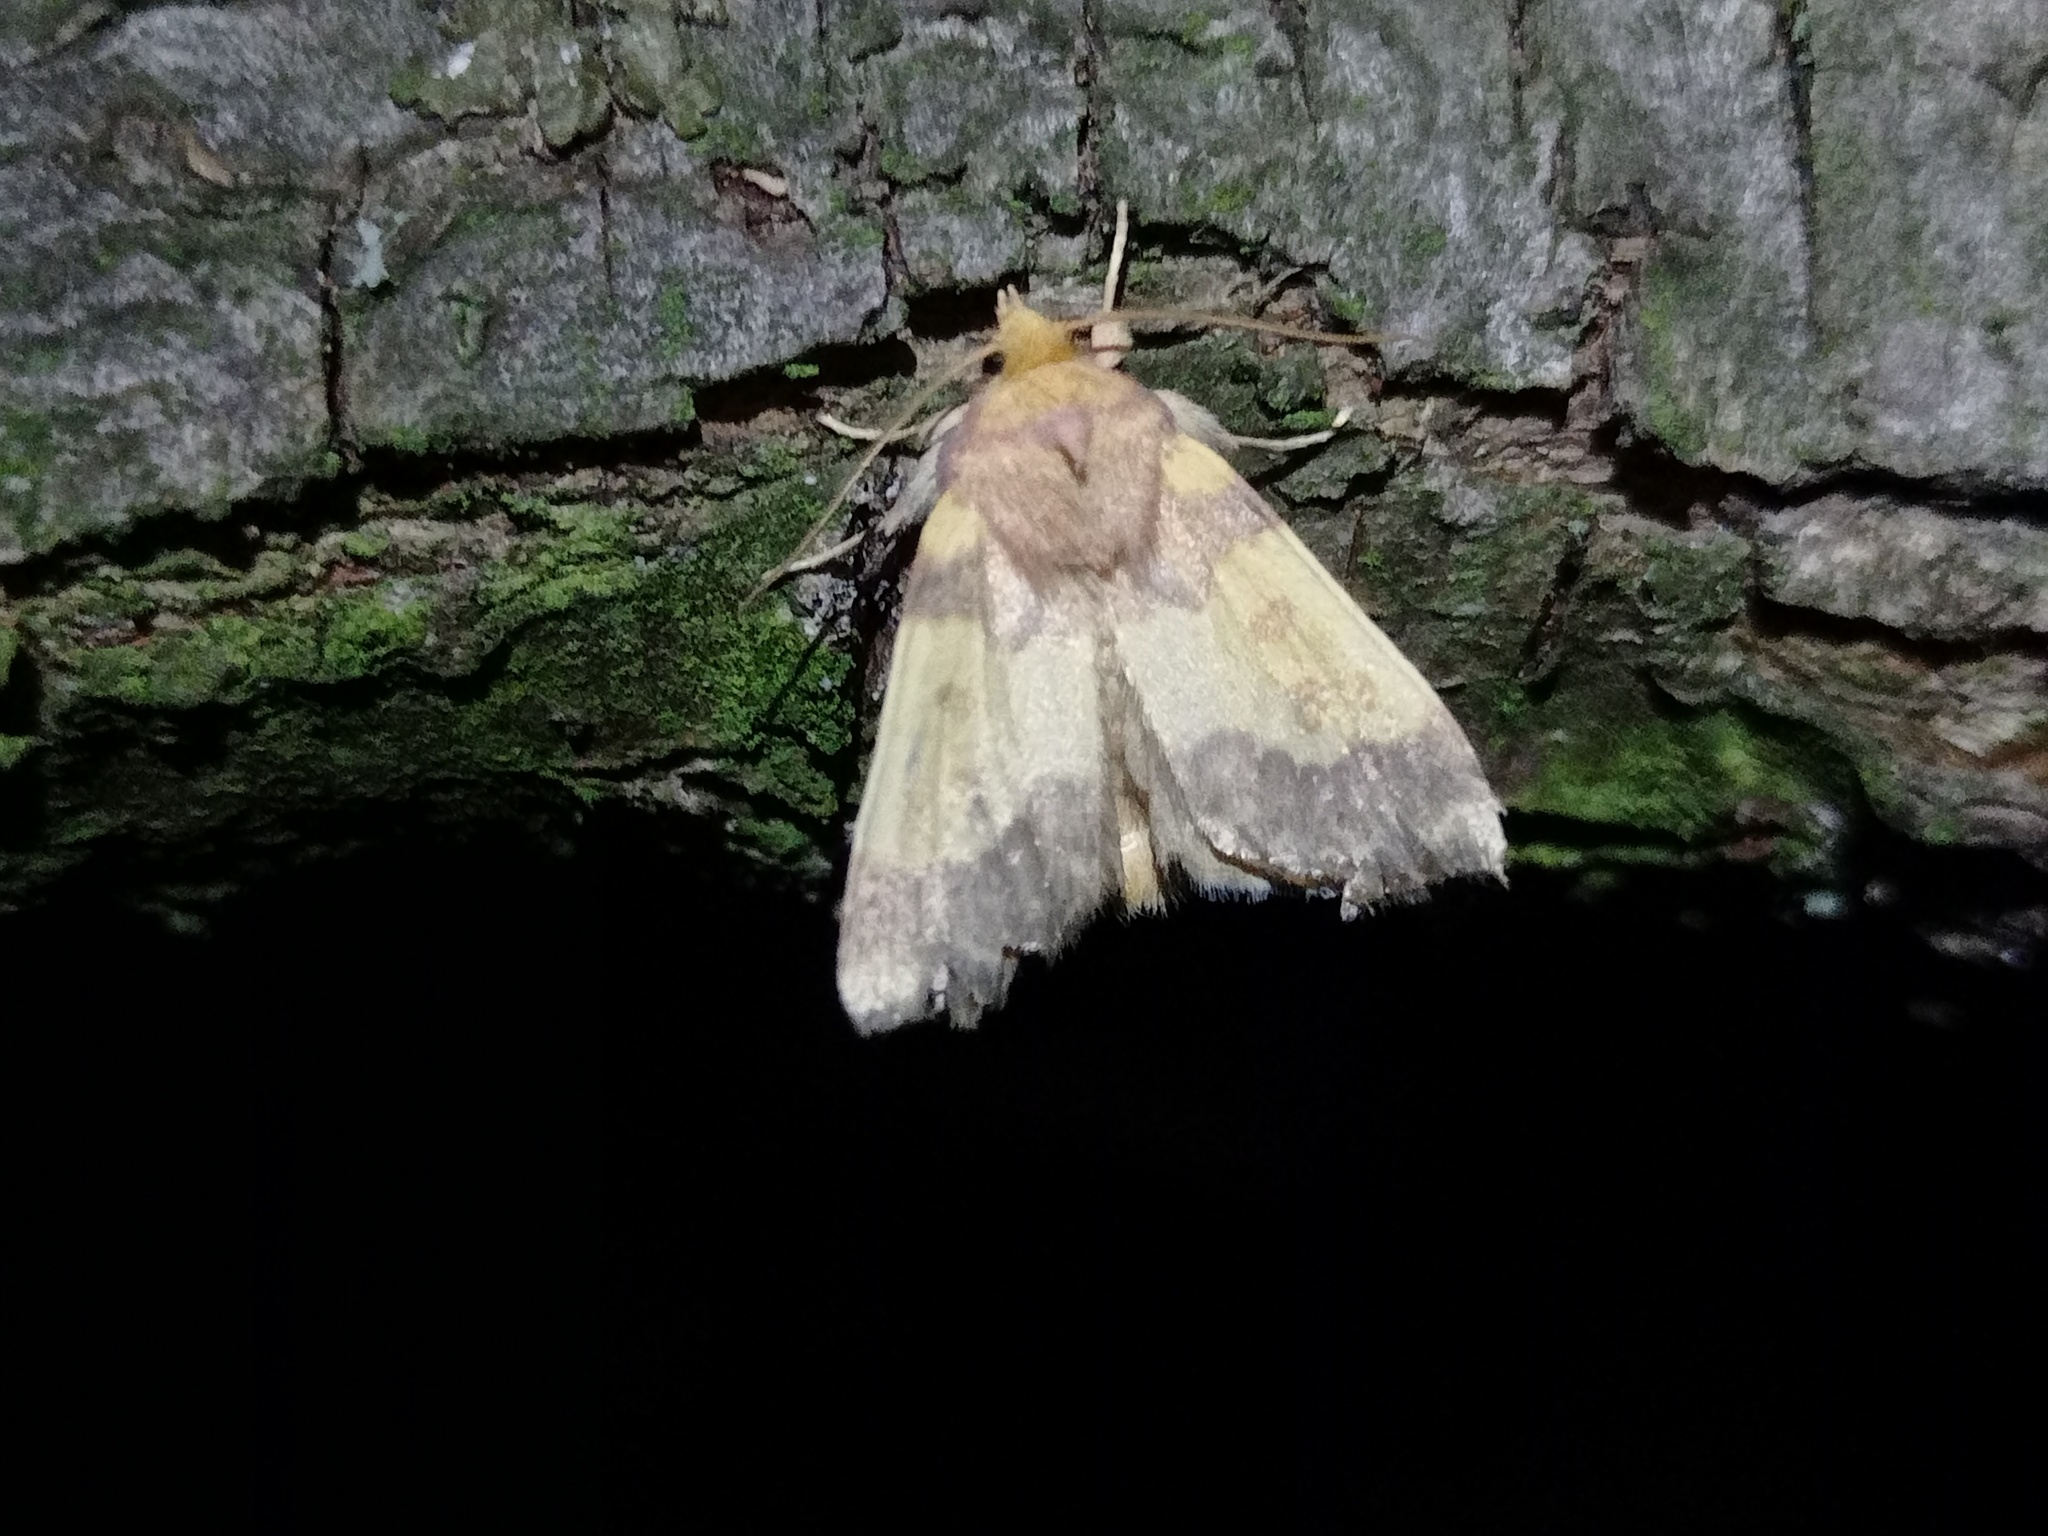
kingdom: Animalia
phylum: Arthropoda
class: Insecta
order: Lepidoptera
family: Noctuidae
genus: Tiliacea
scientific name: Tiliacea aurago
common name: Barred sallow
